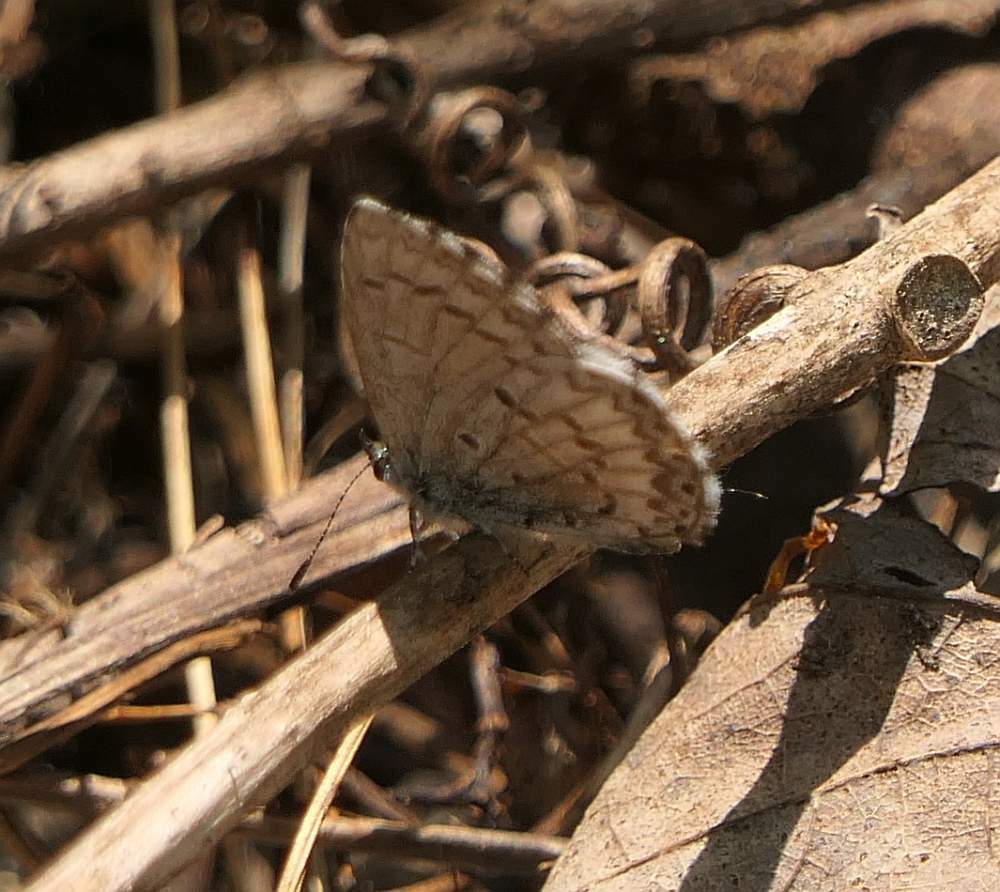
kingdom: Animalia
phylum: Arthropoda
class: Insecta
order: Lepidoptera
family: Lycaenidae
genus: Celastrina
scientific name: Celastrina lucia
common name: Lucia azure
